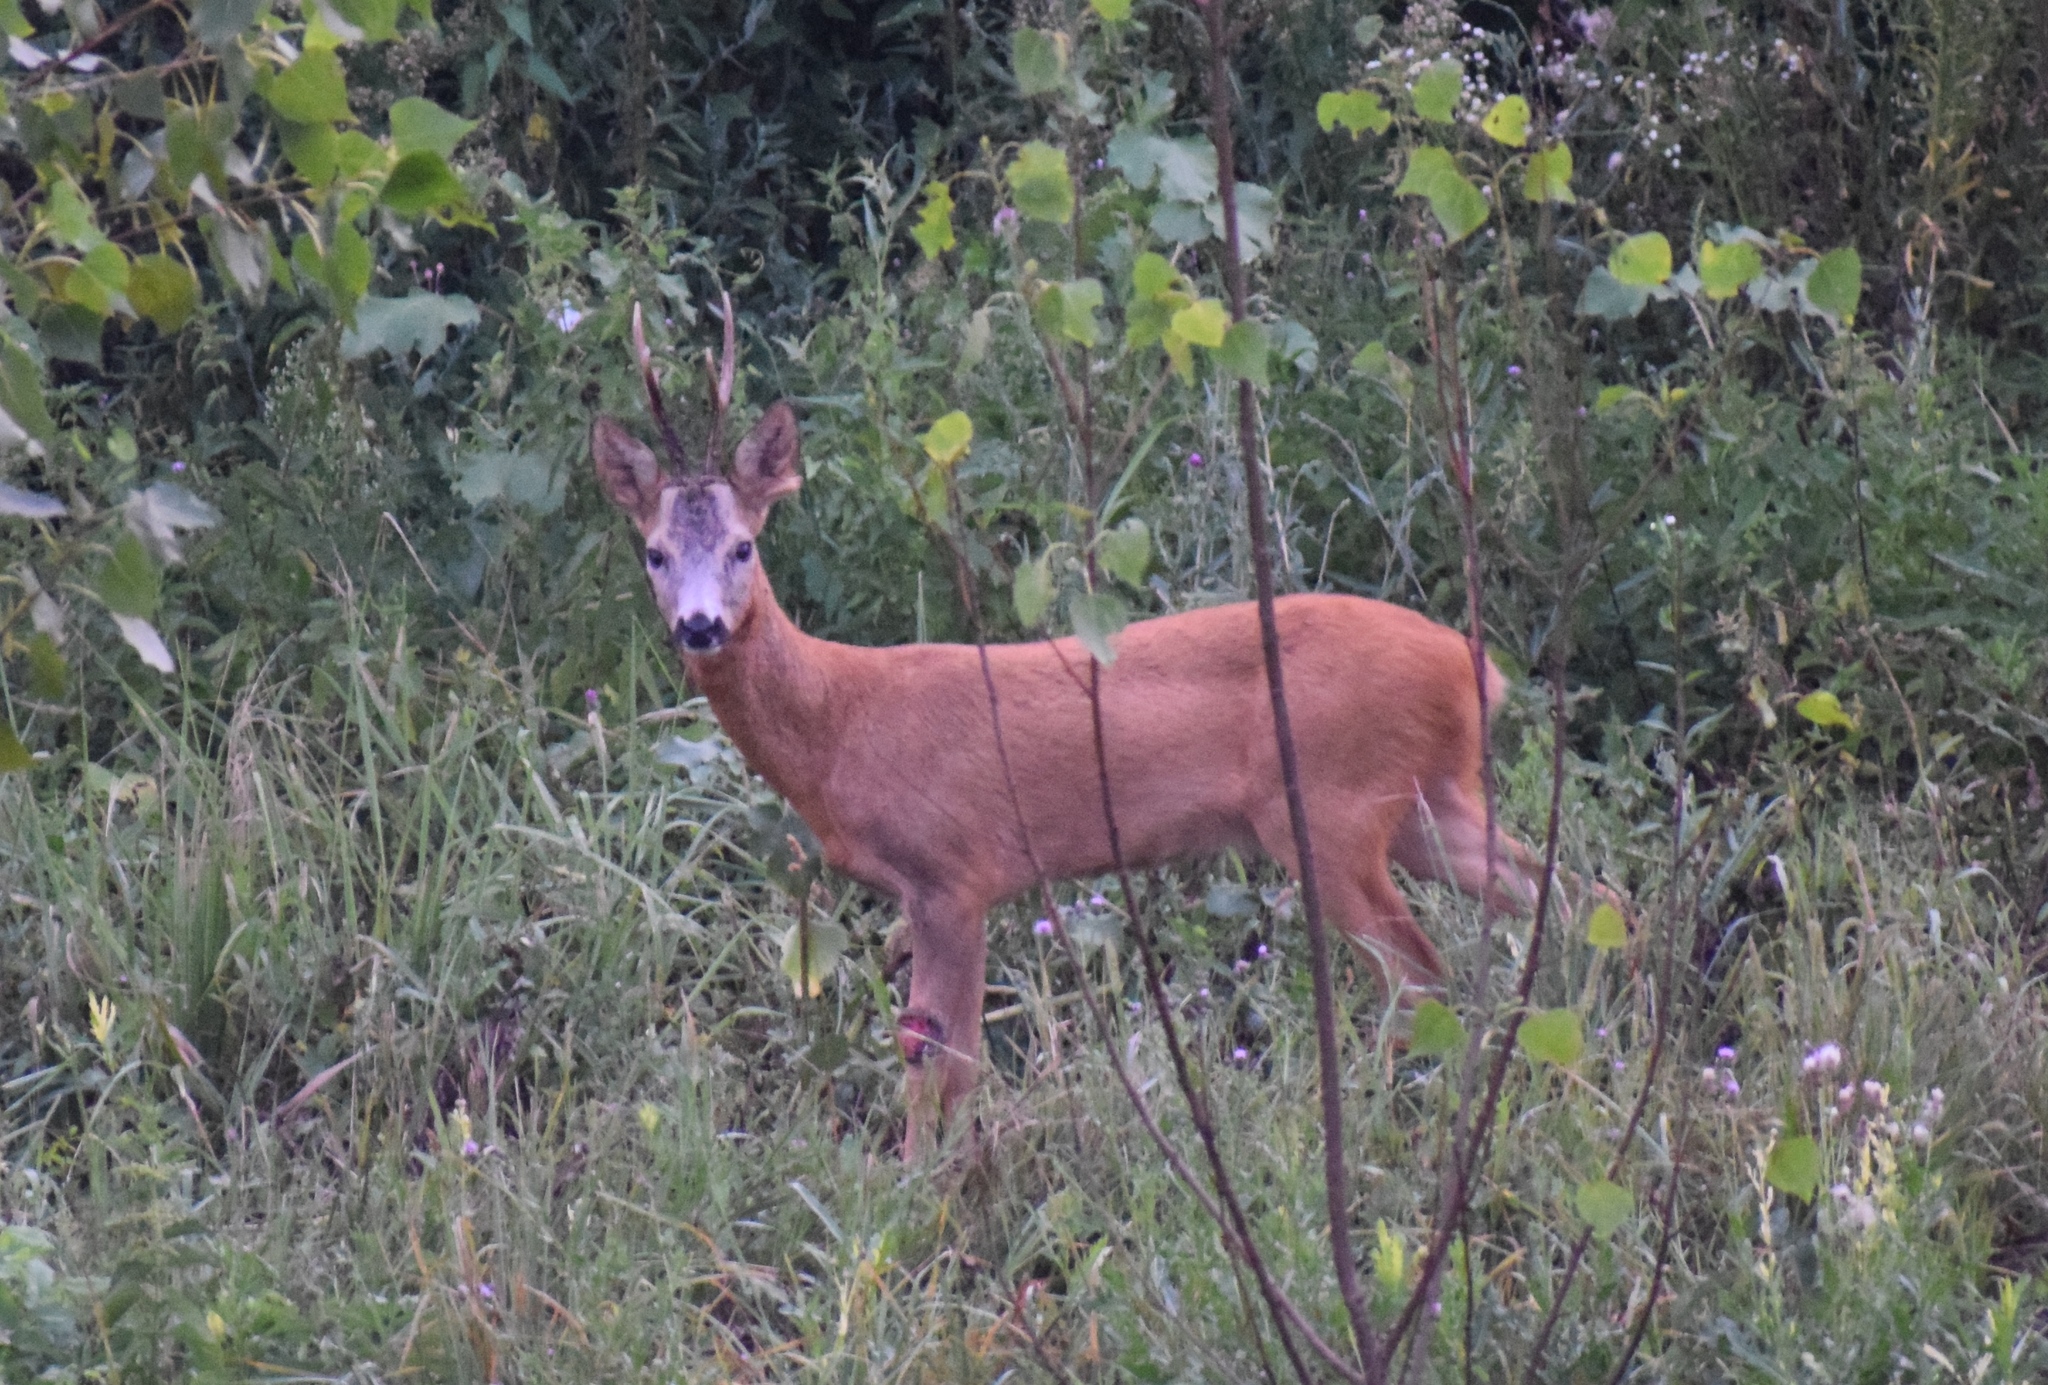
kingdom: Animalia
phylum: Chordata
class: Mammalia
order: Artiodactyla
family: Cervidae
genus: Capreolus
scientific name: Capreolus capreolus
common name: Western roe deer
